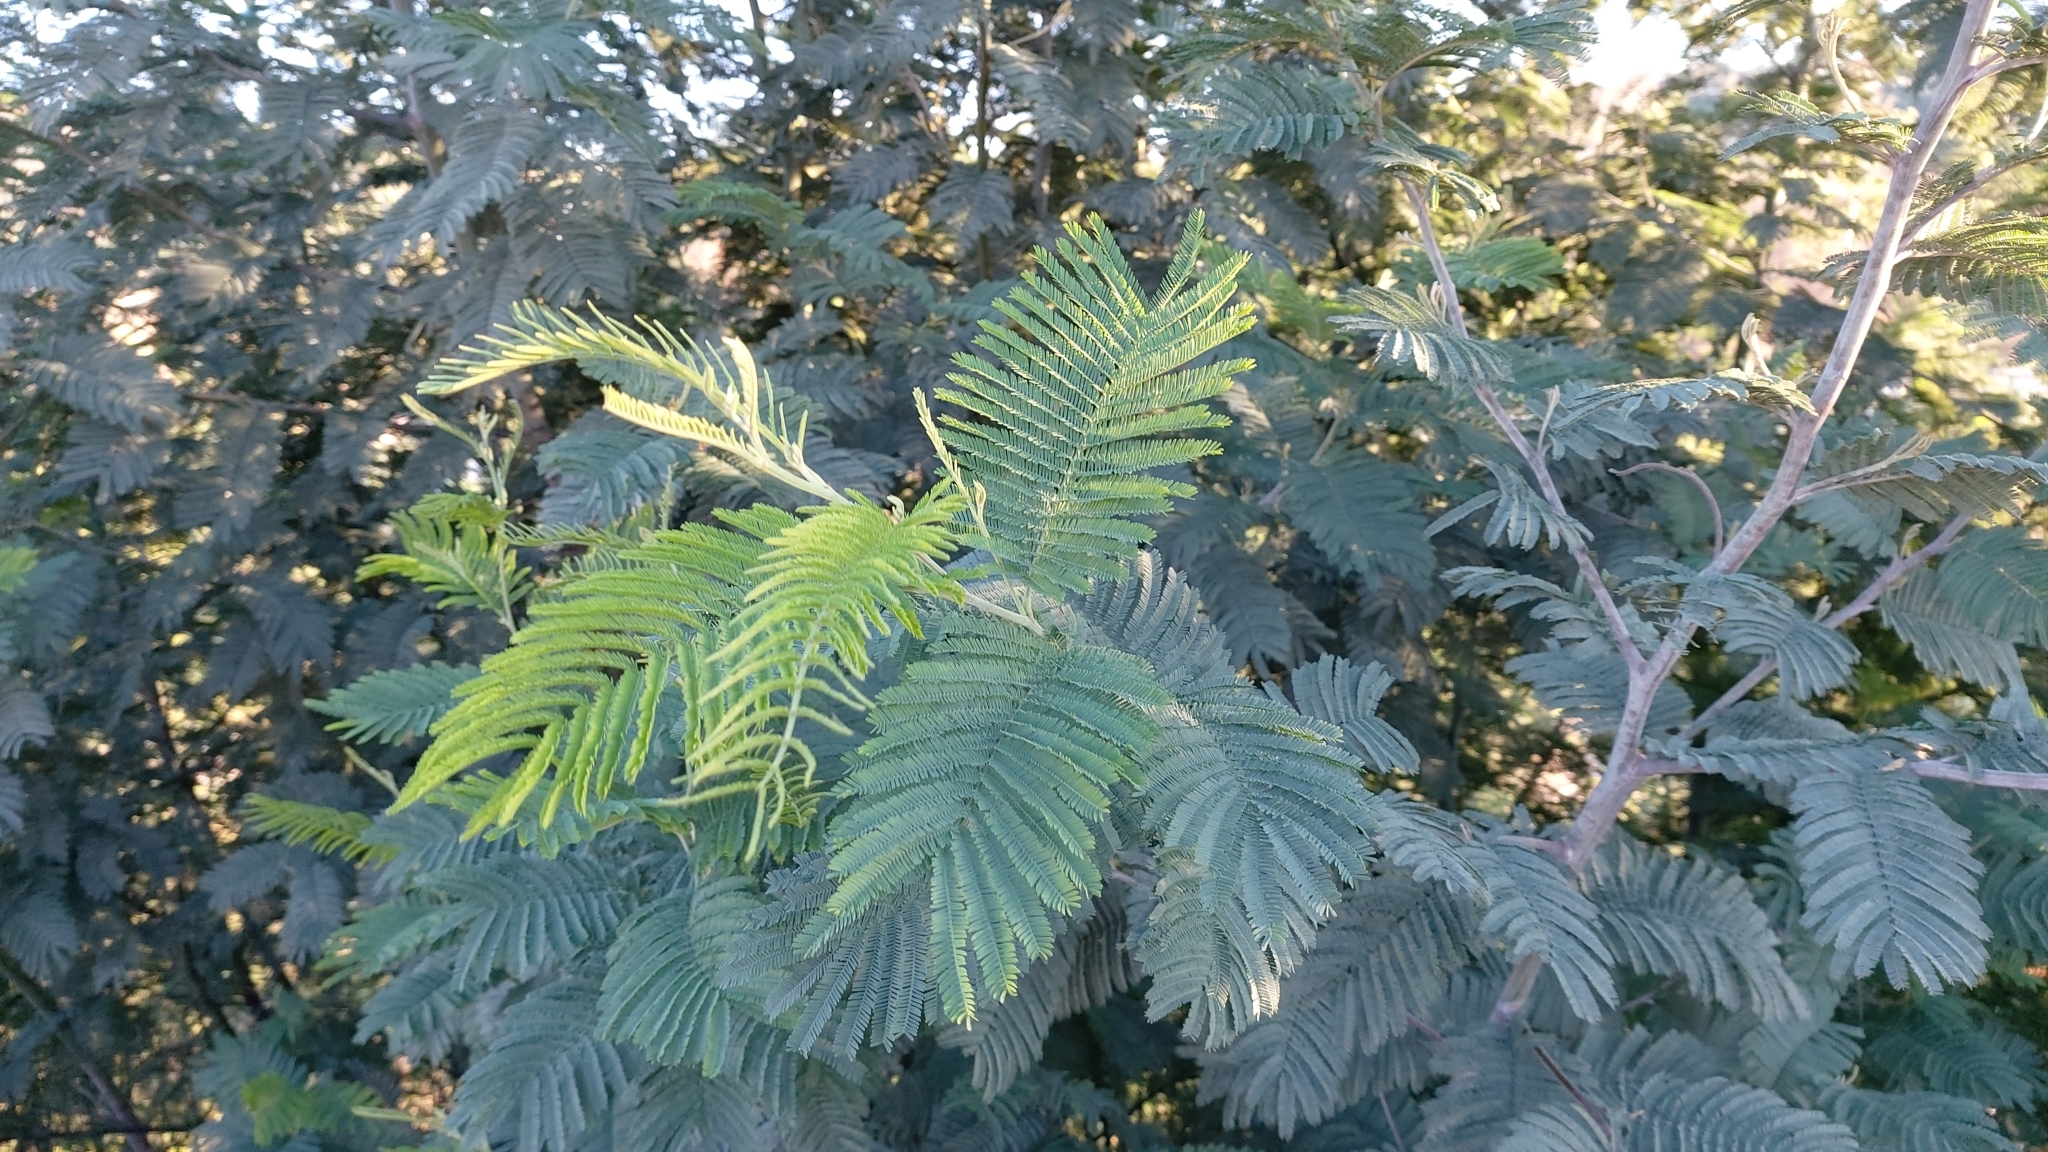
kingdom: Plantae
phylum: Tracheophyta
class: Magnoliopsida
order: Fabales
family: Fabaceae
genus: Acacia
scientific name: Acacia dealbata
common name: Silver wattle
